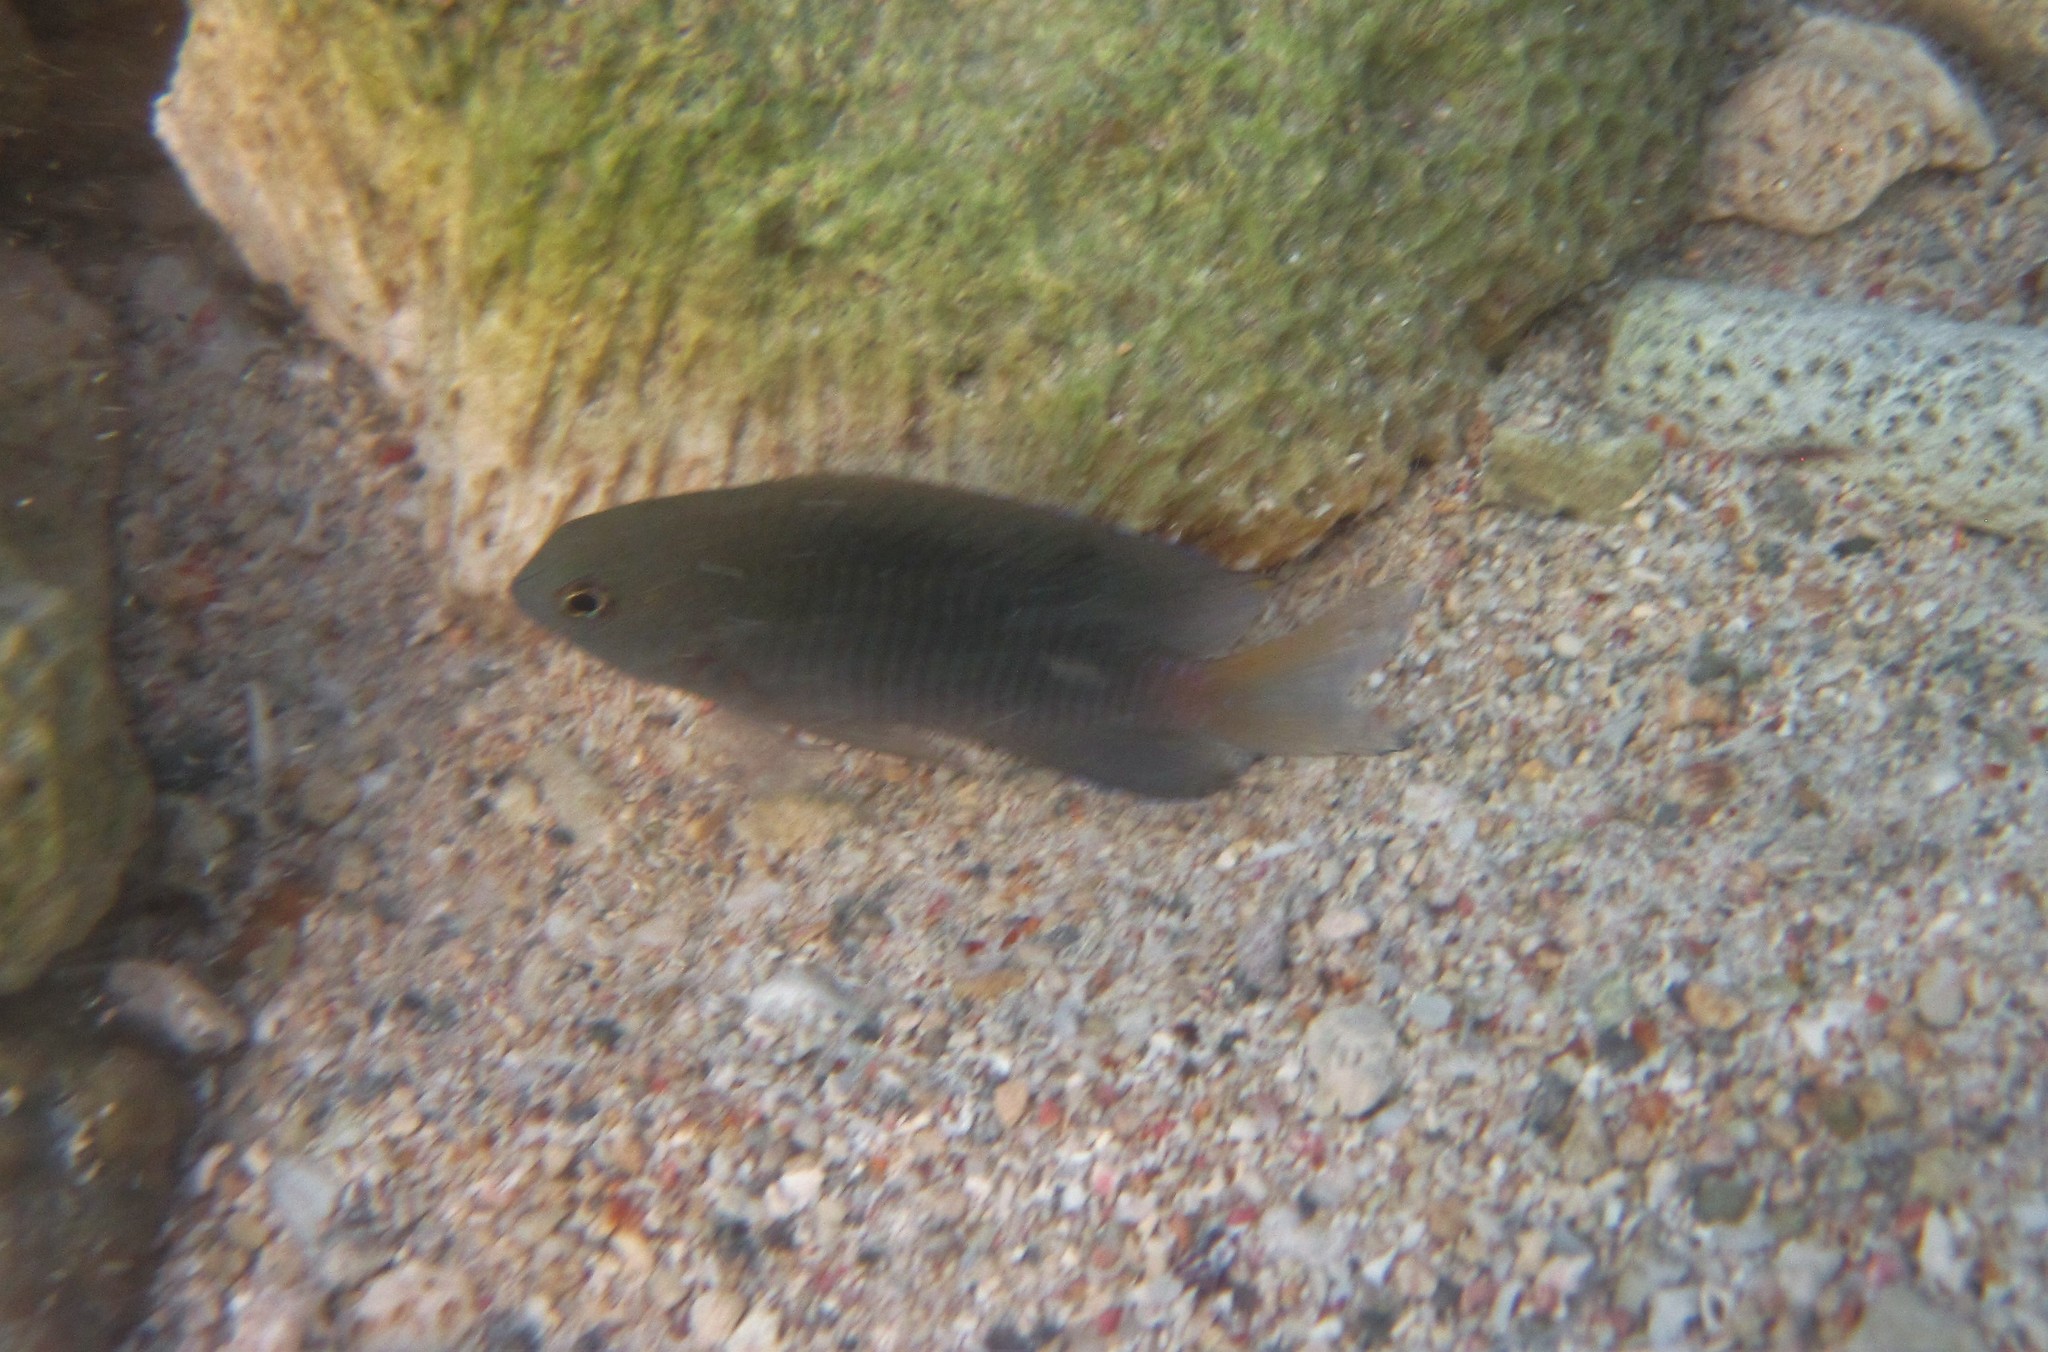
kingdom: Animalia
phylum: Chordata
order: Perciformes
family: Pomacentridae
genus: Stegastes
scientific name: Stegastes leucostictus
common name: Beaugregory
